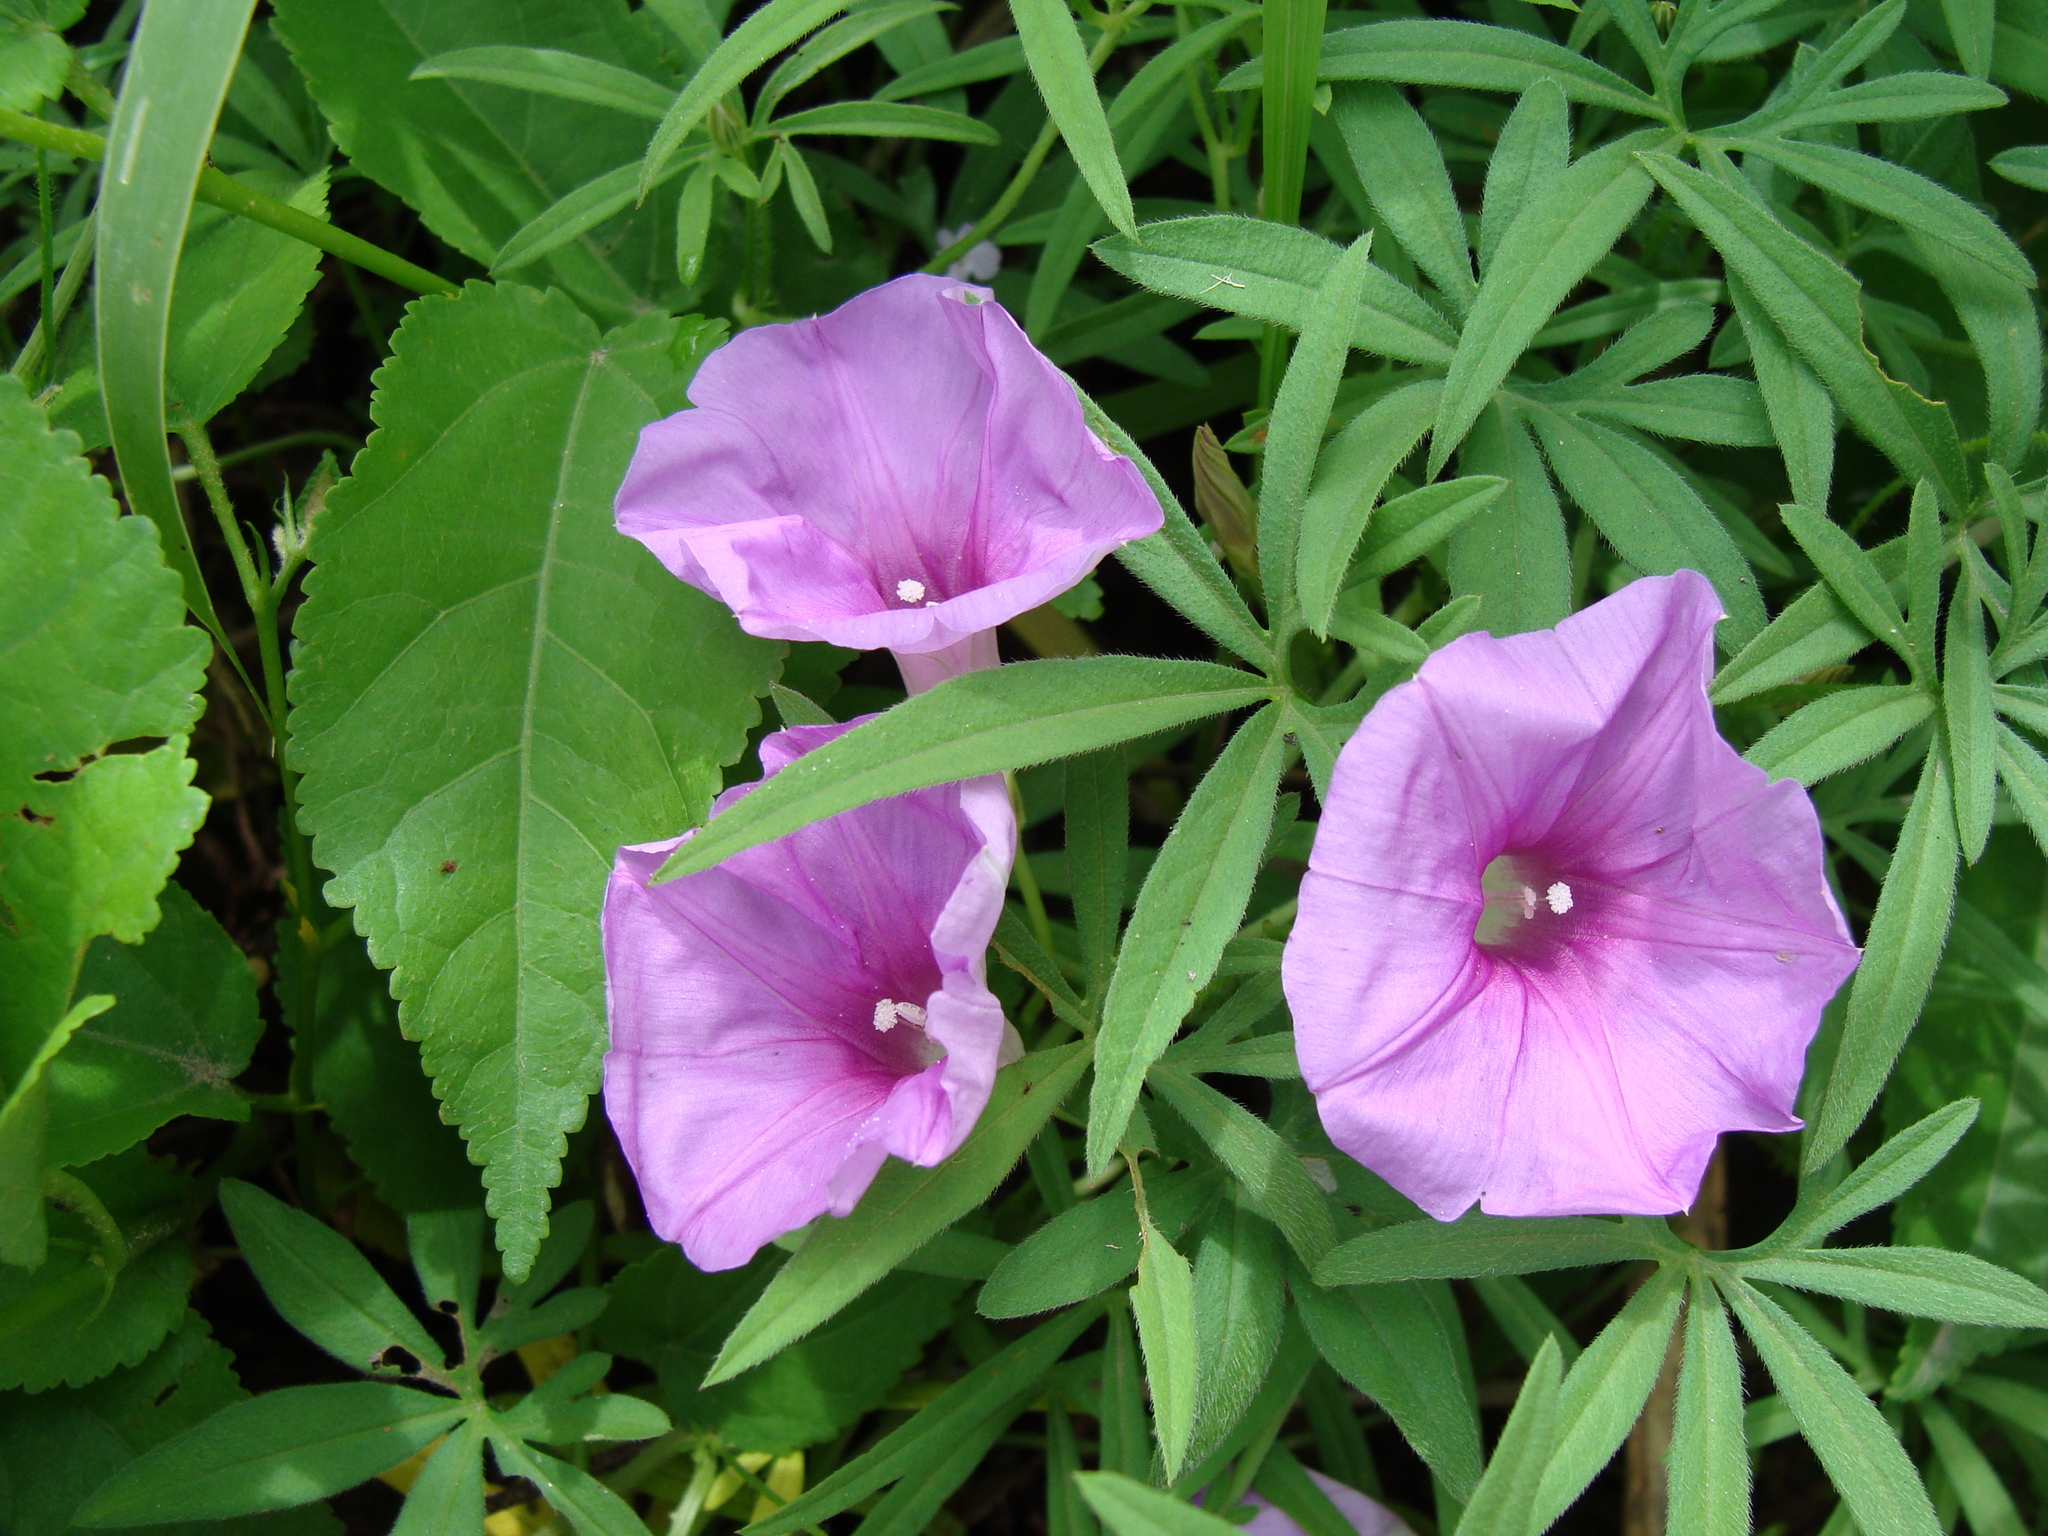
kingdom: Plantae
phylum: Tracheophyta
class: Magnoliopsida
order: Solanales
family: Convolvulaceae
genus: Ipomoea
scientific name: Ipomoea ternifolia
